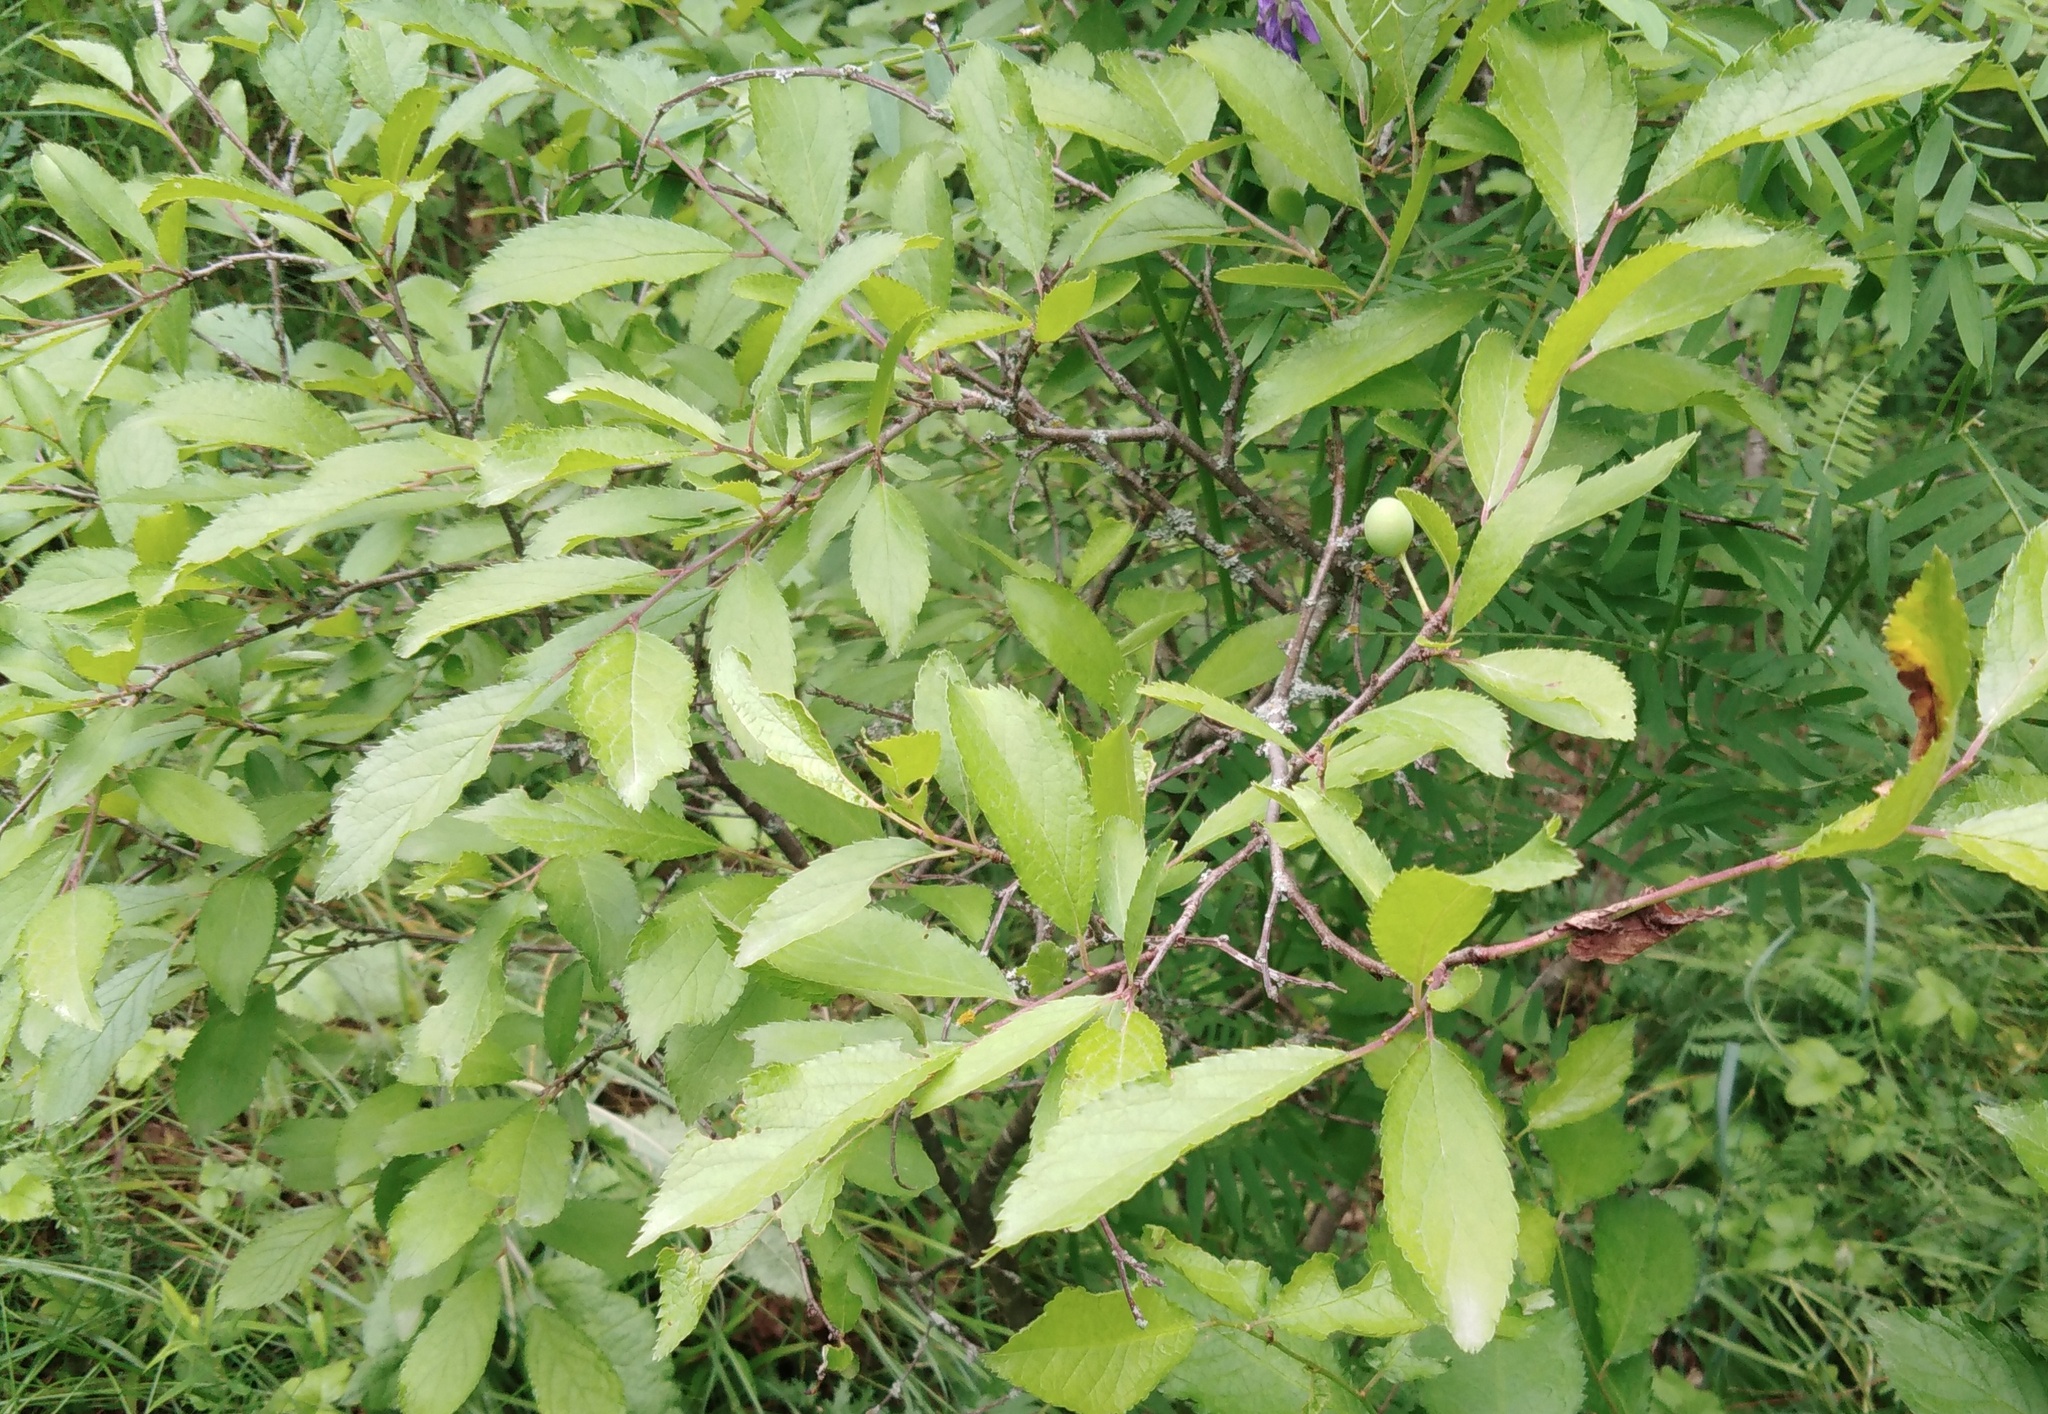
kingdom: Plantae
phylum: Tracheophyta
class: Magnoliopsida
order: Rosales
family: Rosaceae
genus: Prunus
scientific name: Prunus spinosa
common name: Blackthorn
